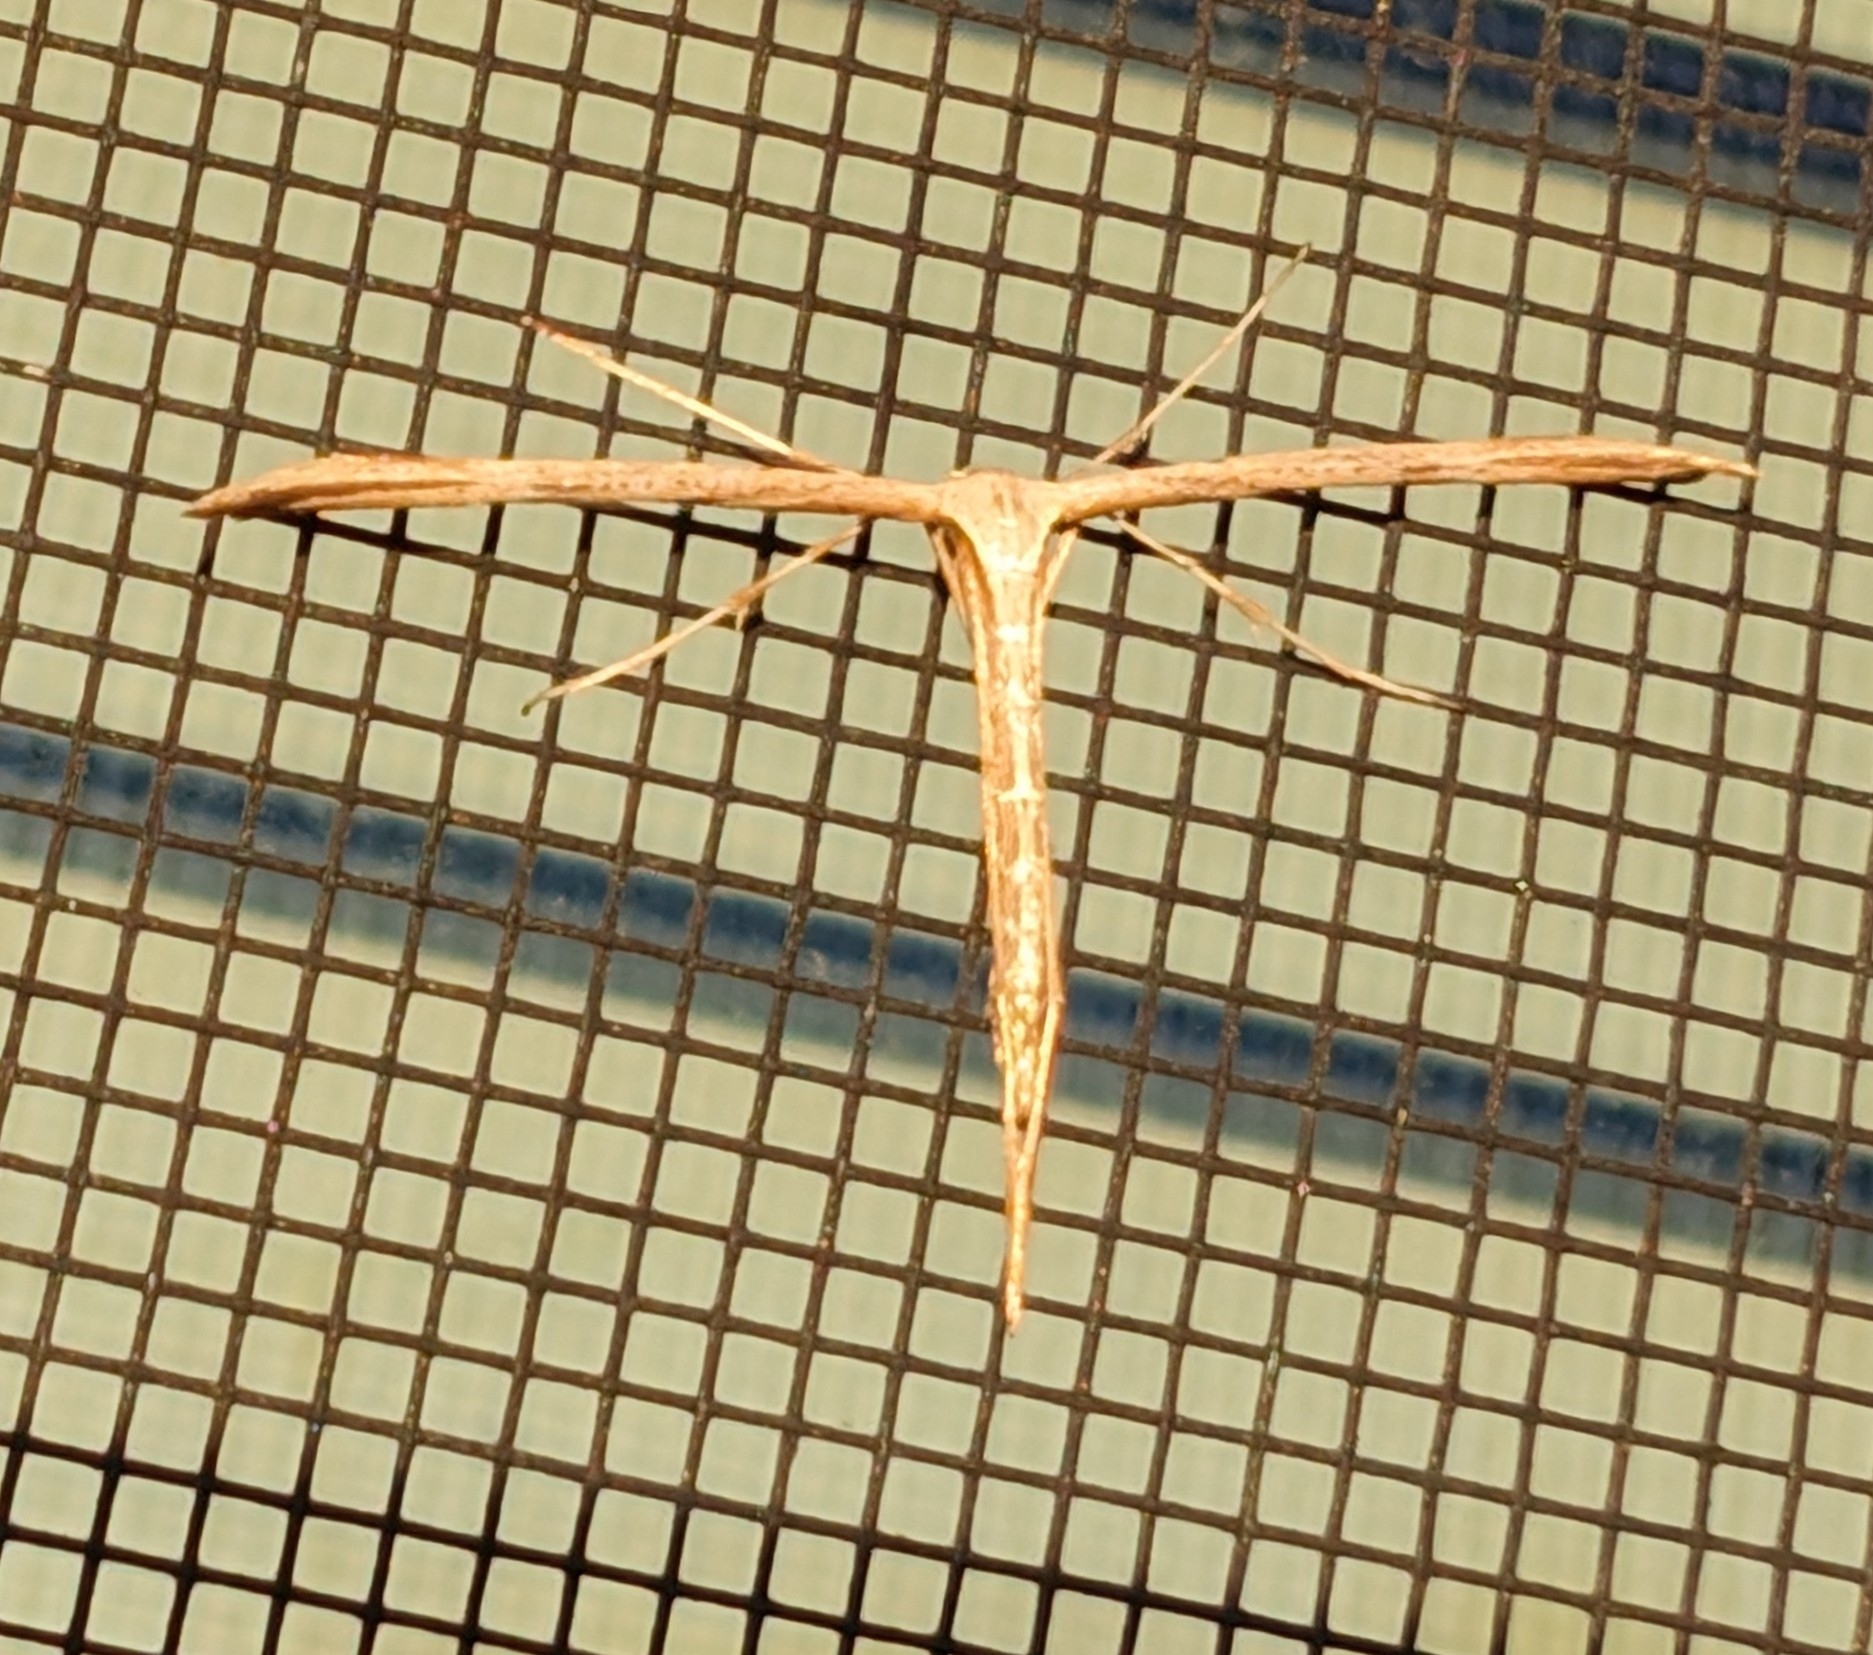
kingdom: Animalia
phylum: Arthropoda
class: Insecta
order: Lepidoptera
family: Pterophoridae
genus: Emmelina
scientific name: Emmelina monodactyla
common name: Common plume
